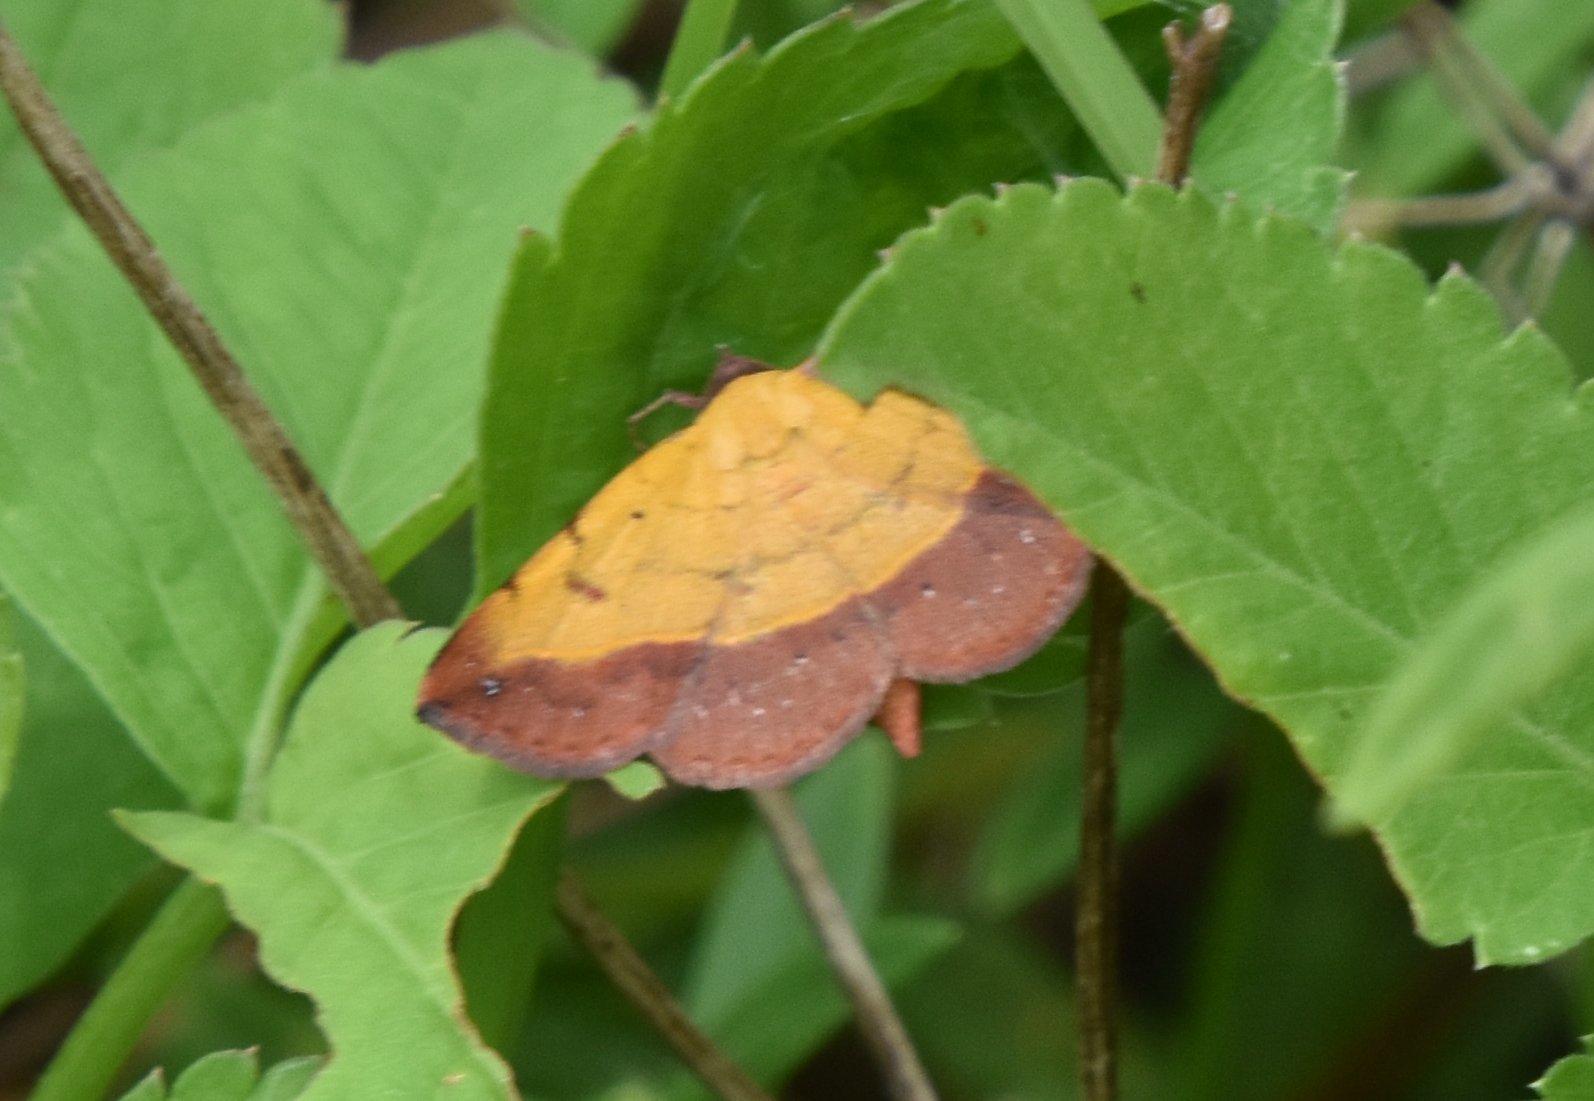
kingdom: Animalia
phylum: Arthropoda
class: Insecta
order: Lepidoptera
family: Erebidae
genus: Hemeroplanis
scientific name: Hemeroplanis scopulepes
